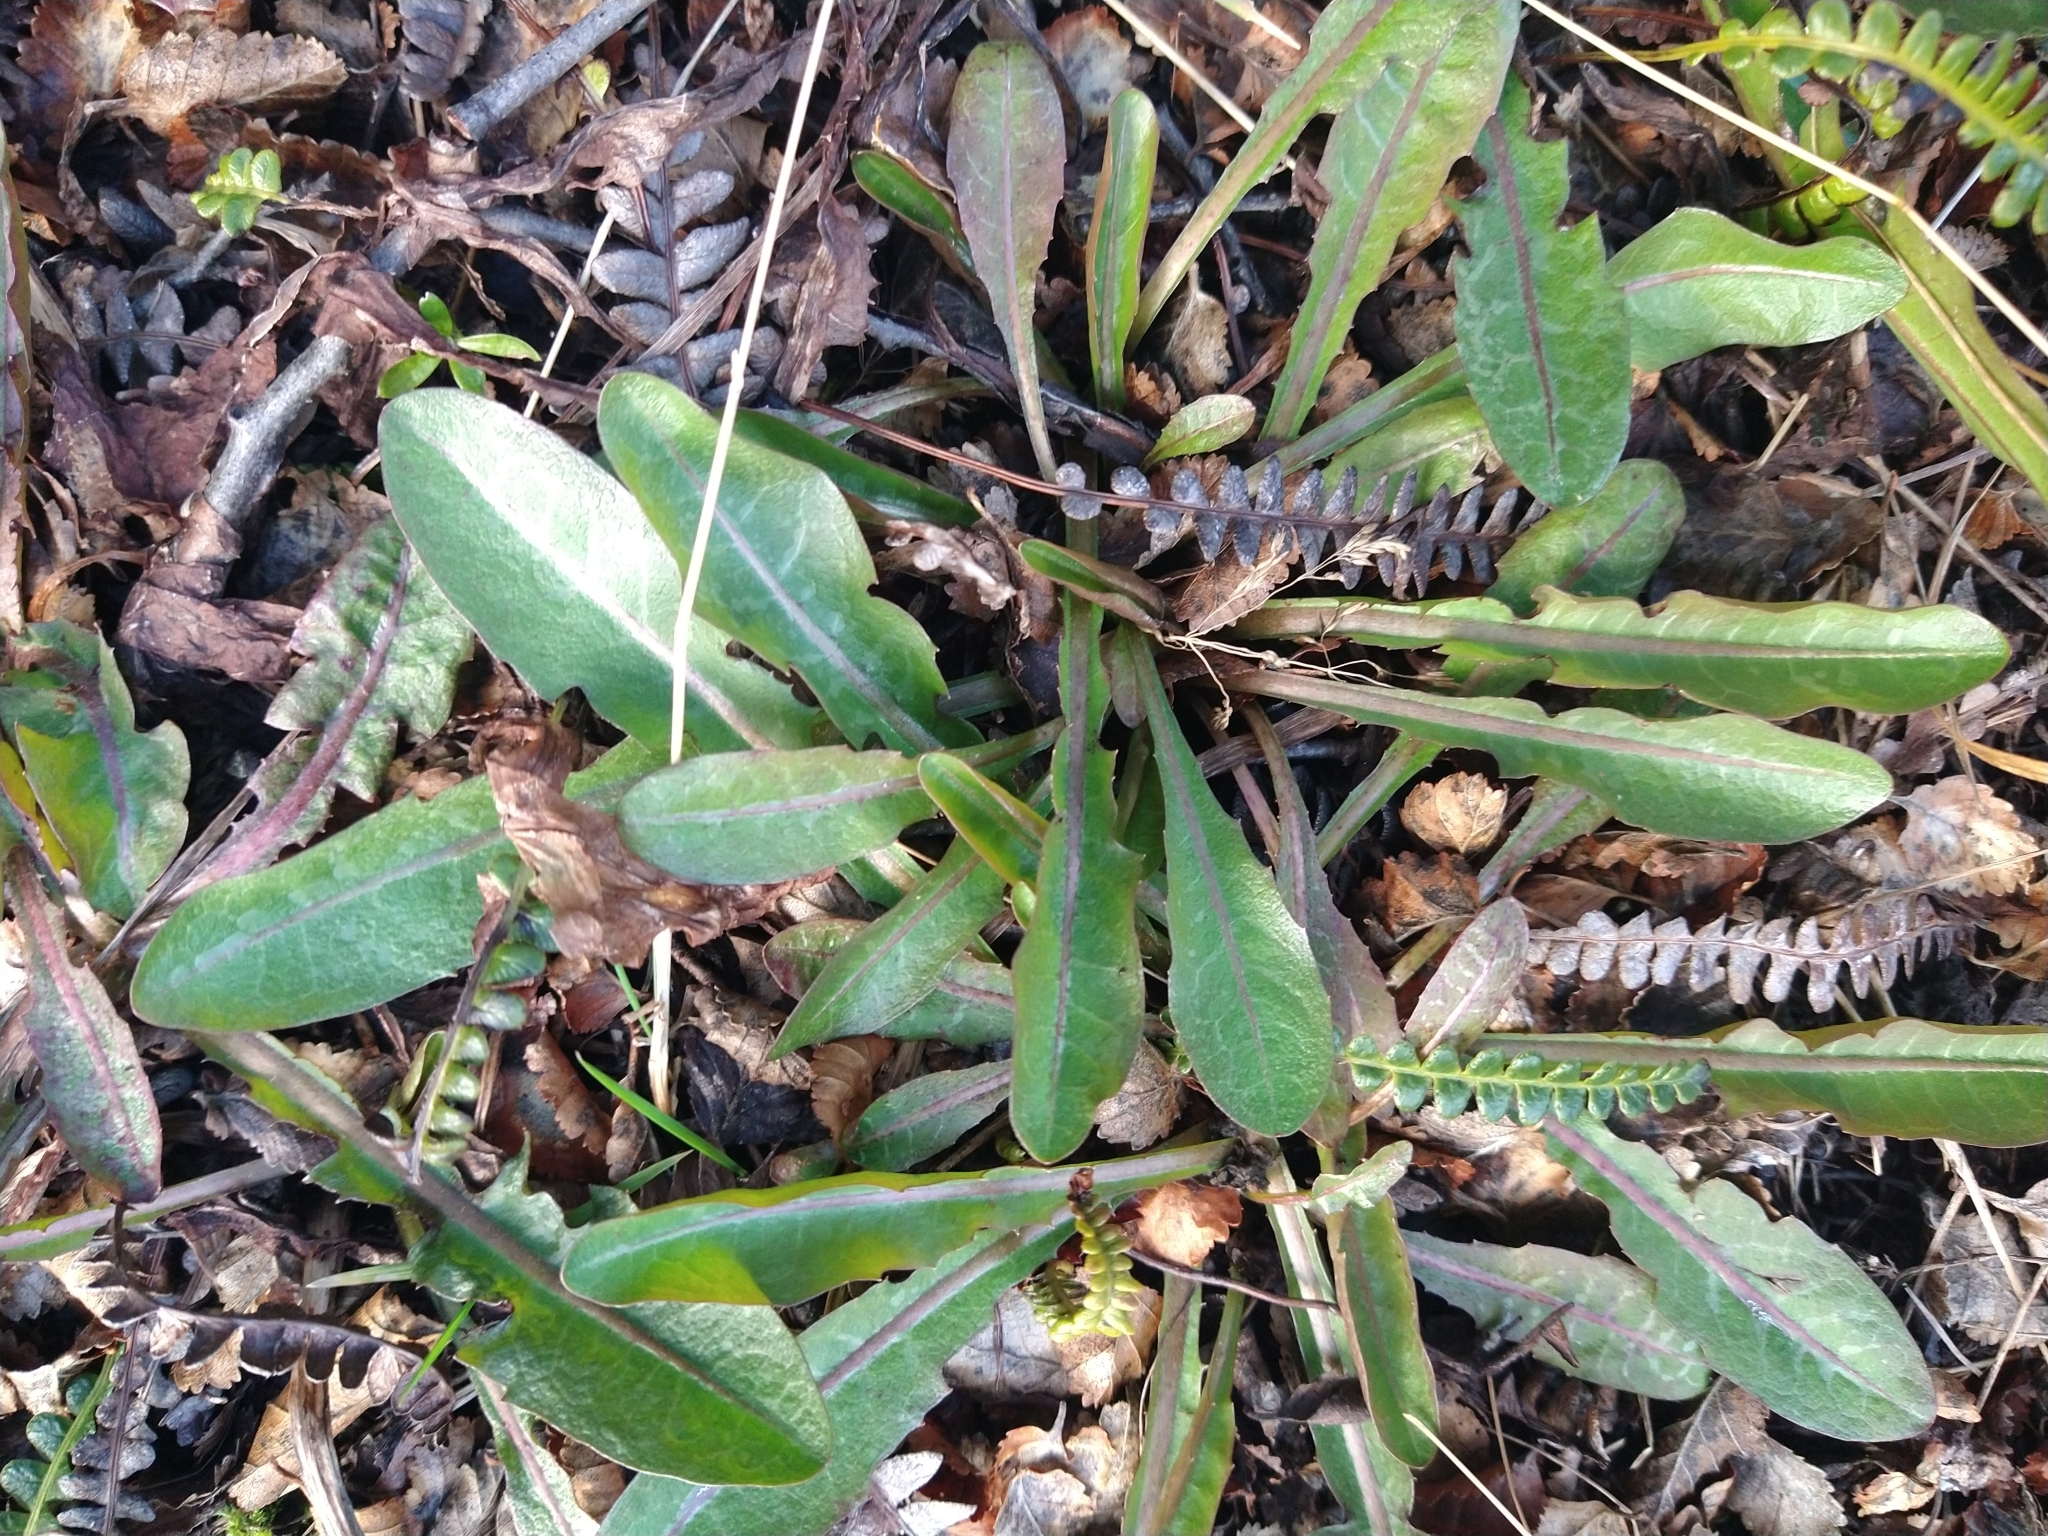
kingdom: Plantae
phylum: Tracheophyta
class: Magnoliopsida
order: Asterales
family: Asteraceae
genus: Taraxacum
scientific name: Taraxacum officinale
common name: Common dandelion
